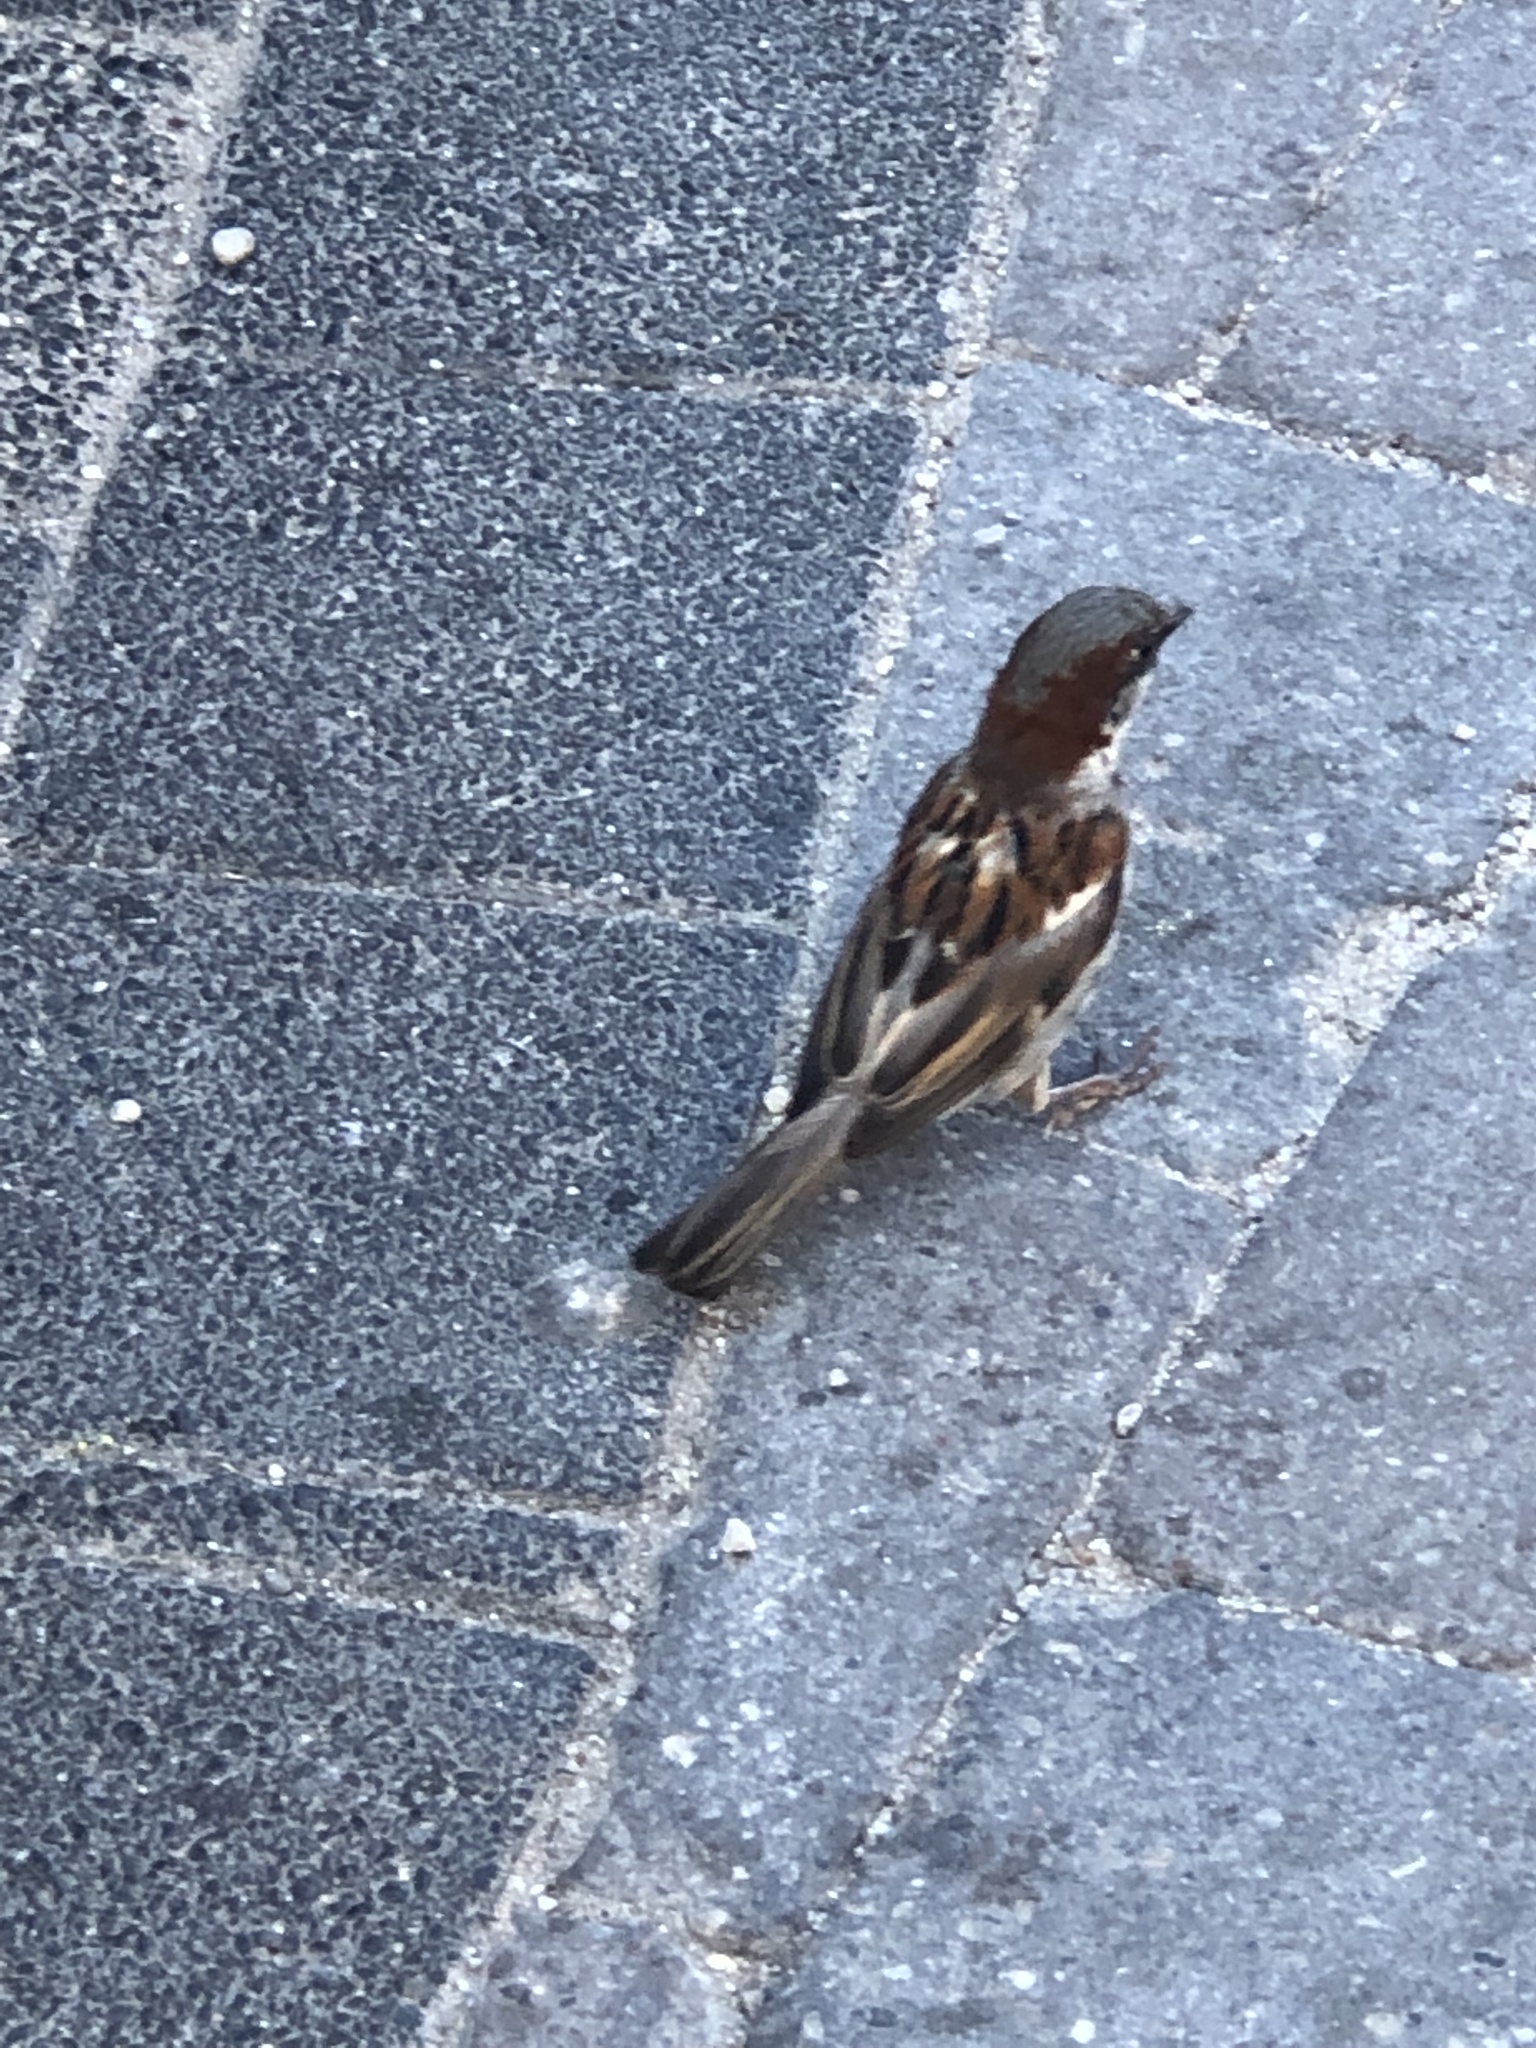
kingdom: Animalia
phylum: Chordata
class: Aves
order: Passeriformes
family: Passeridae
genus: Passer
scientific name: Passer domesticus
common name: House sparrow
